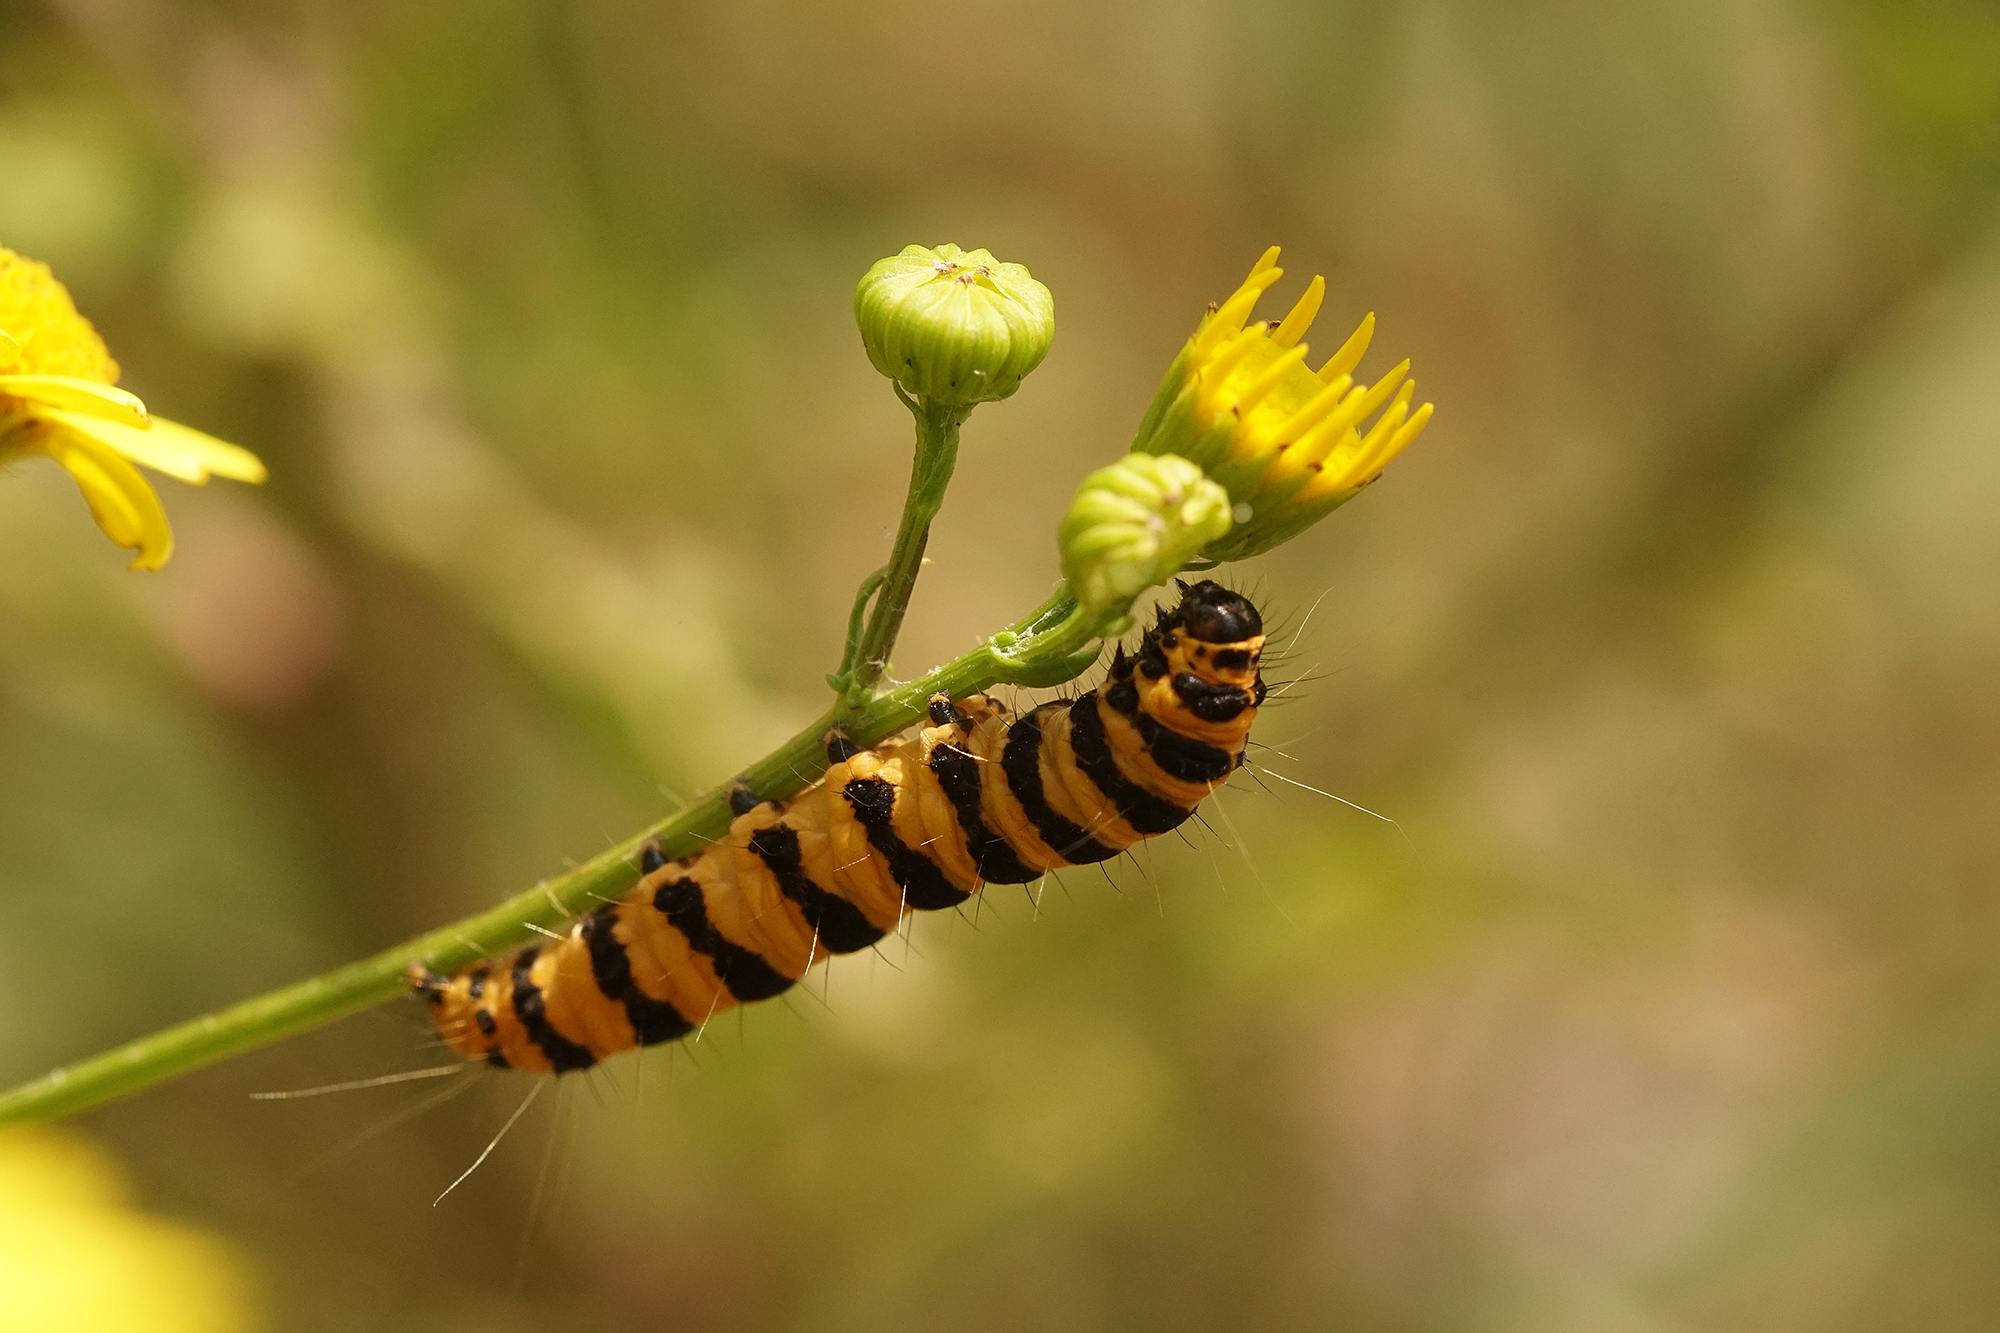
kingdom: Animalia
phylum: Arthropoda
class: Insecta
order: Lepidoptera
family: Erebidae
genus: Tyria
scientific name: Tyria jacobaeae
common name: Cinnabar
